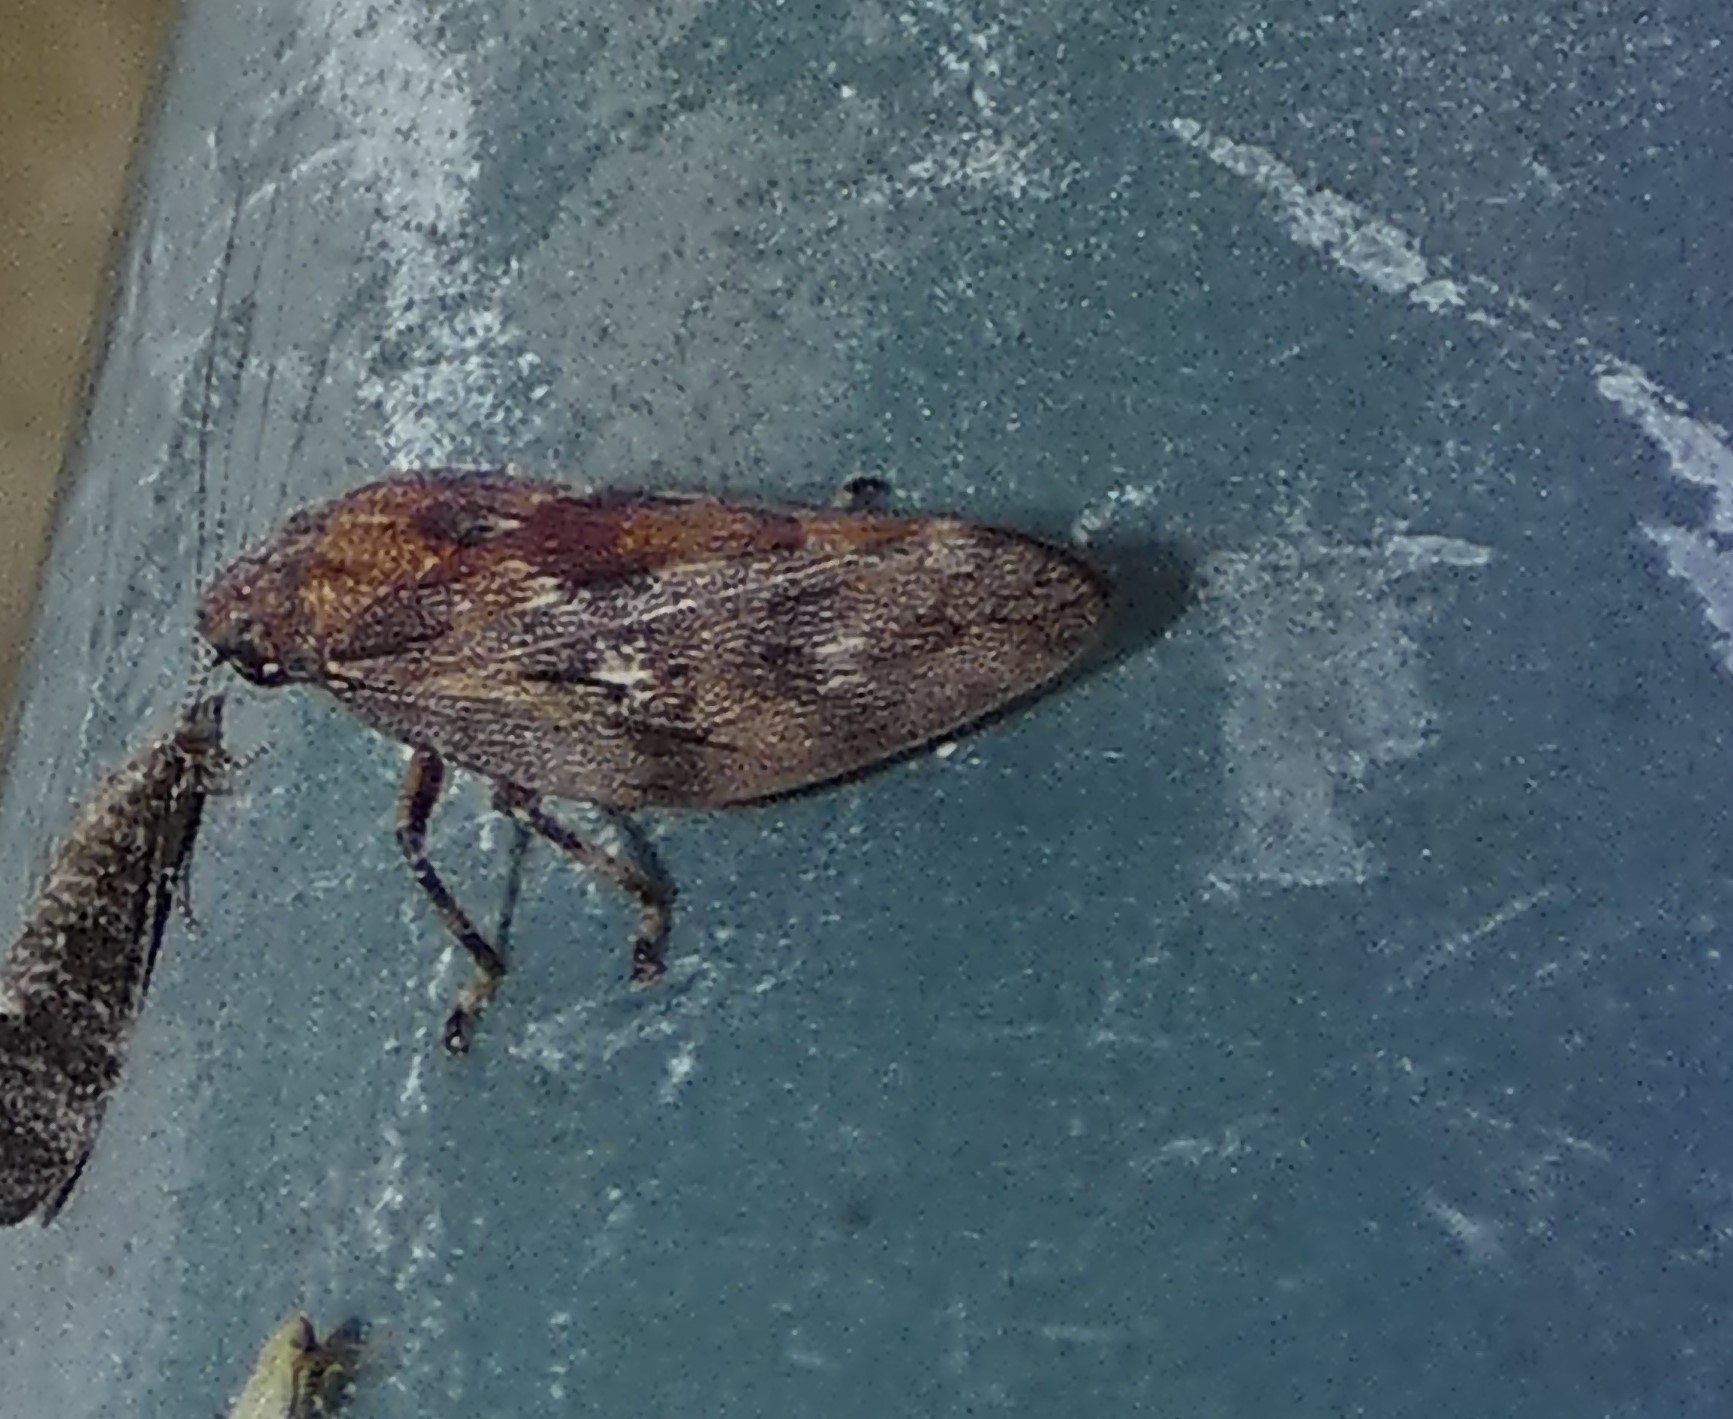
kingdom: Animalia
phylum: Arthropoda
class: Insecta
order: Hemiptera
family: Epipygidae
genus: Epipyga
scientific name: Epipyga cribrata
